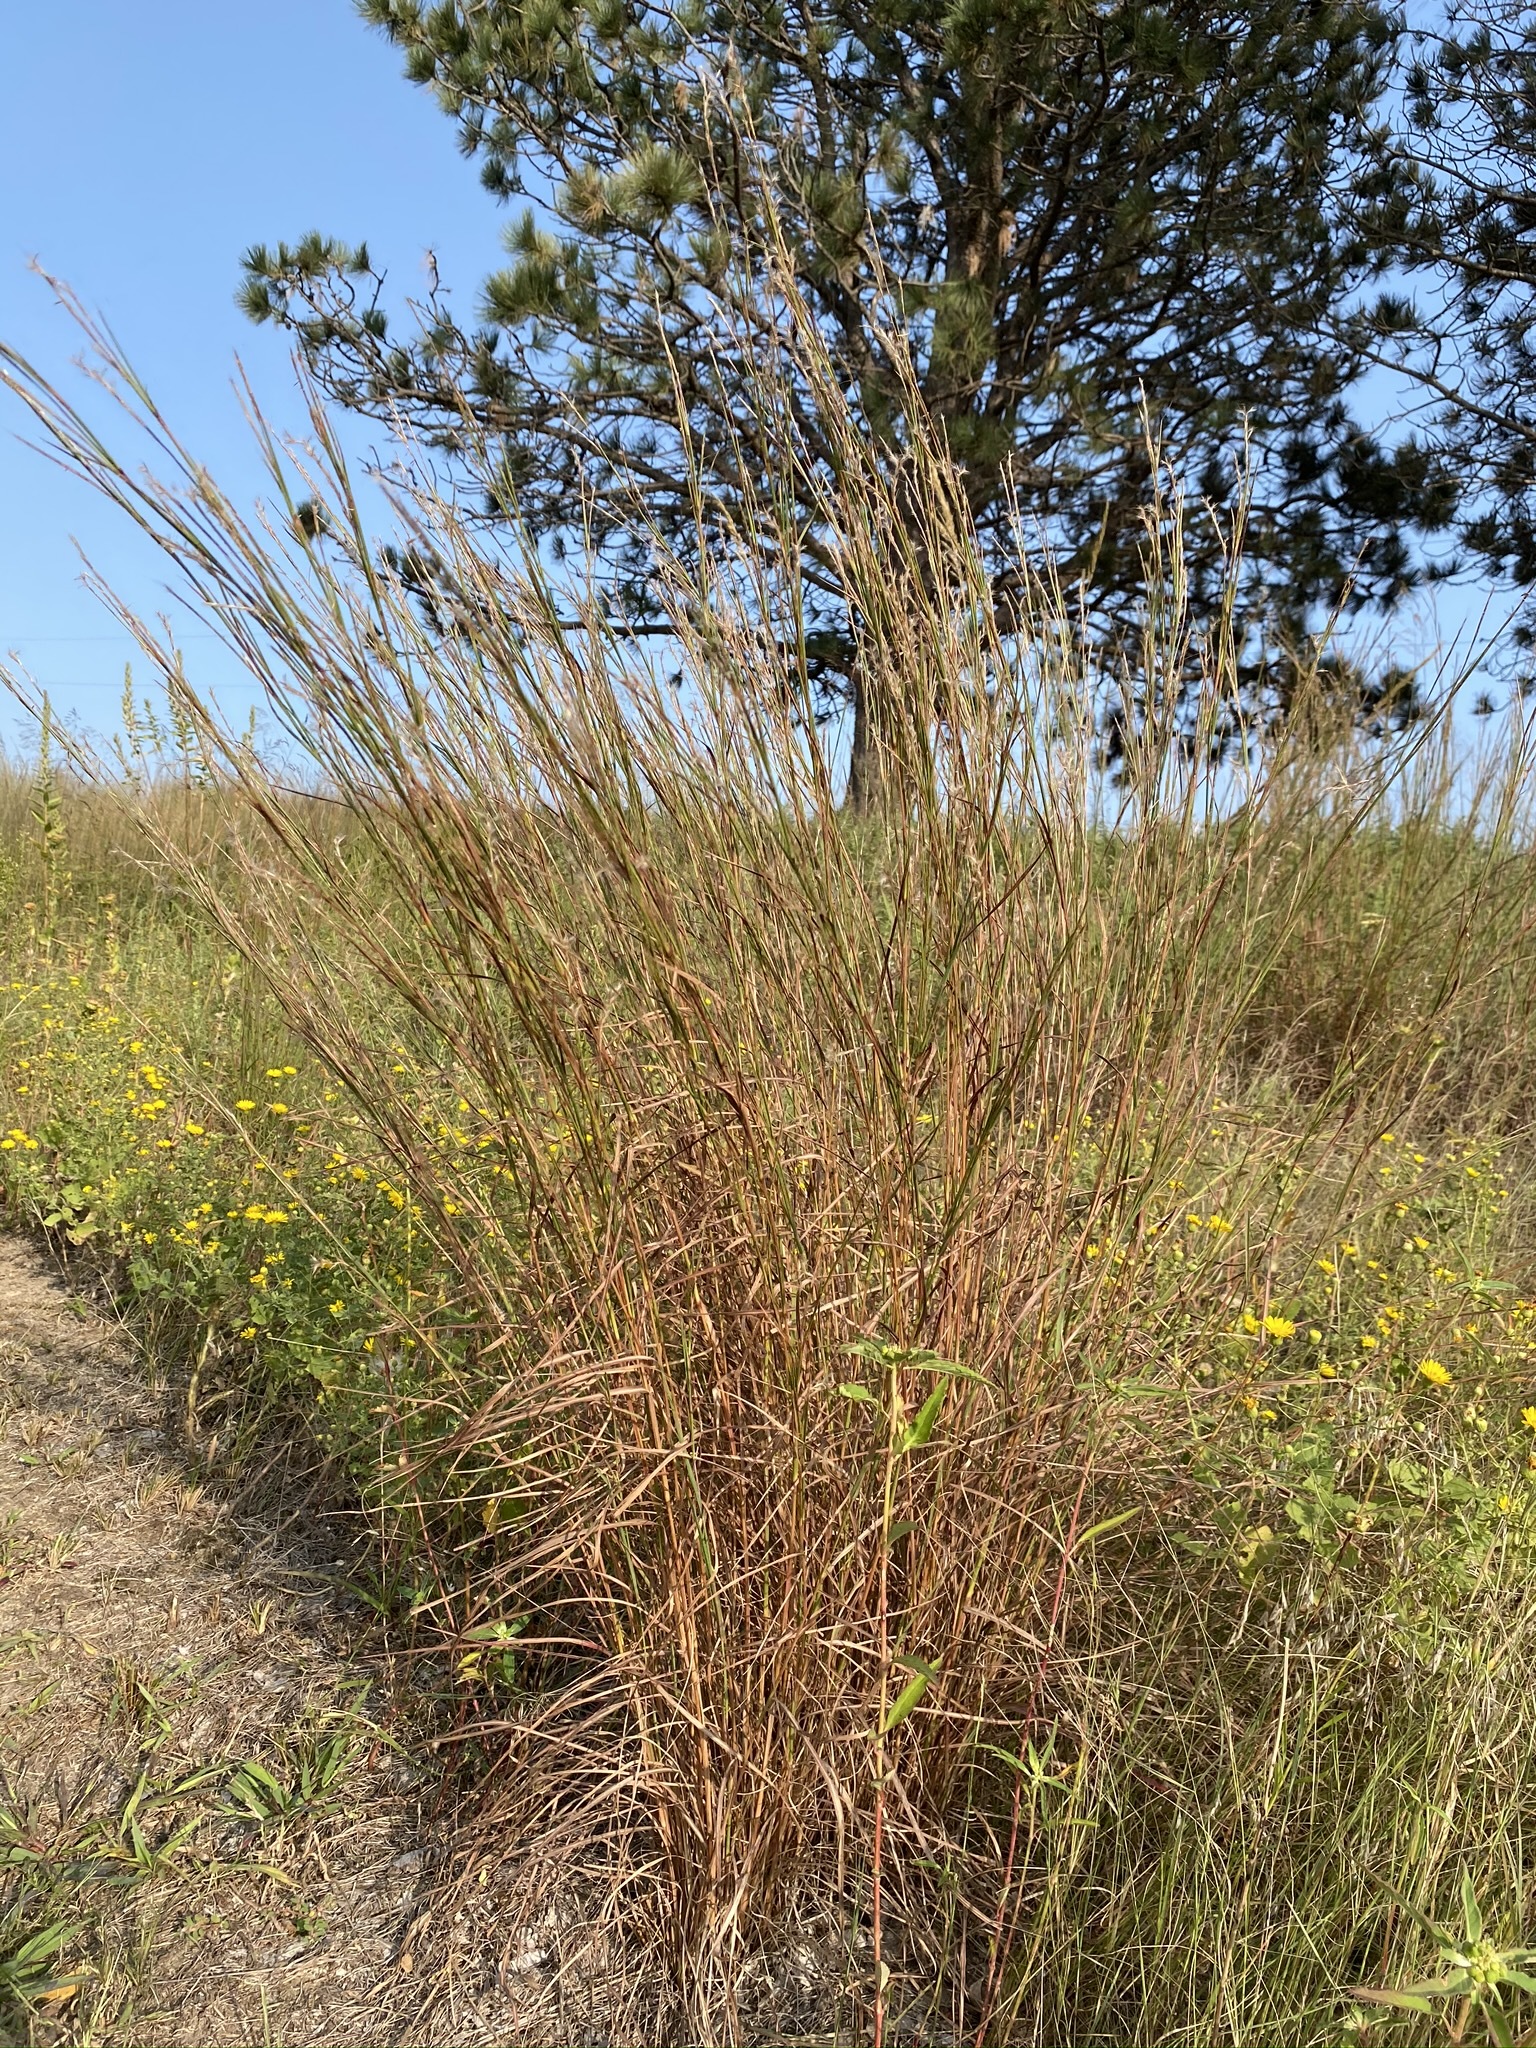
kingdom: Plantae
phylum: Tracheophyta
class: Liliopsida
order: Poales
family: Poaceae
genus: Schizachyrium
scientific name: Schizachyrium scoparium
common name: Little bluestem
